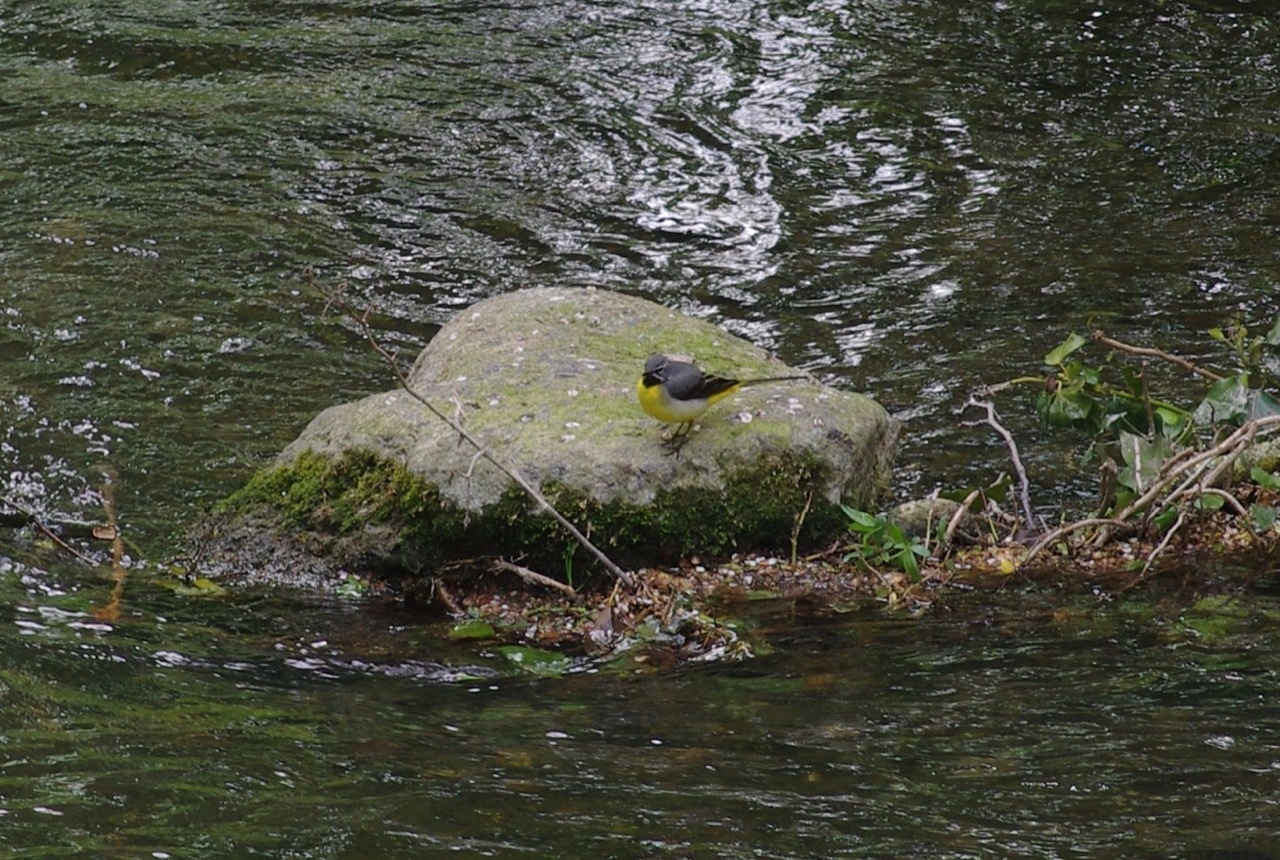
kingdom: Animalia
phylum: Chordata
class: Aves
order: Passeriformes
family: Motacillidae
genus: Motacilla
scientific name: Motacilla cinerea
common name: Grey wagtail
